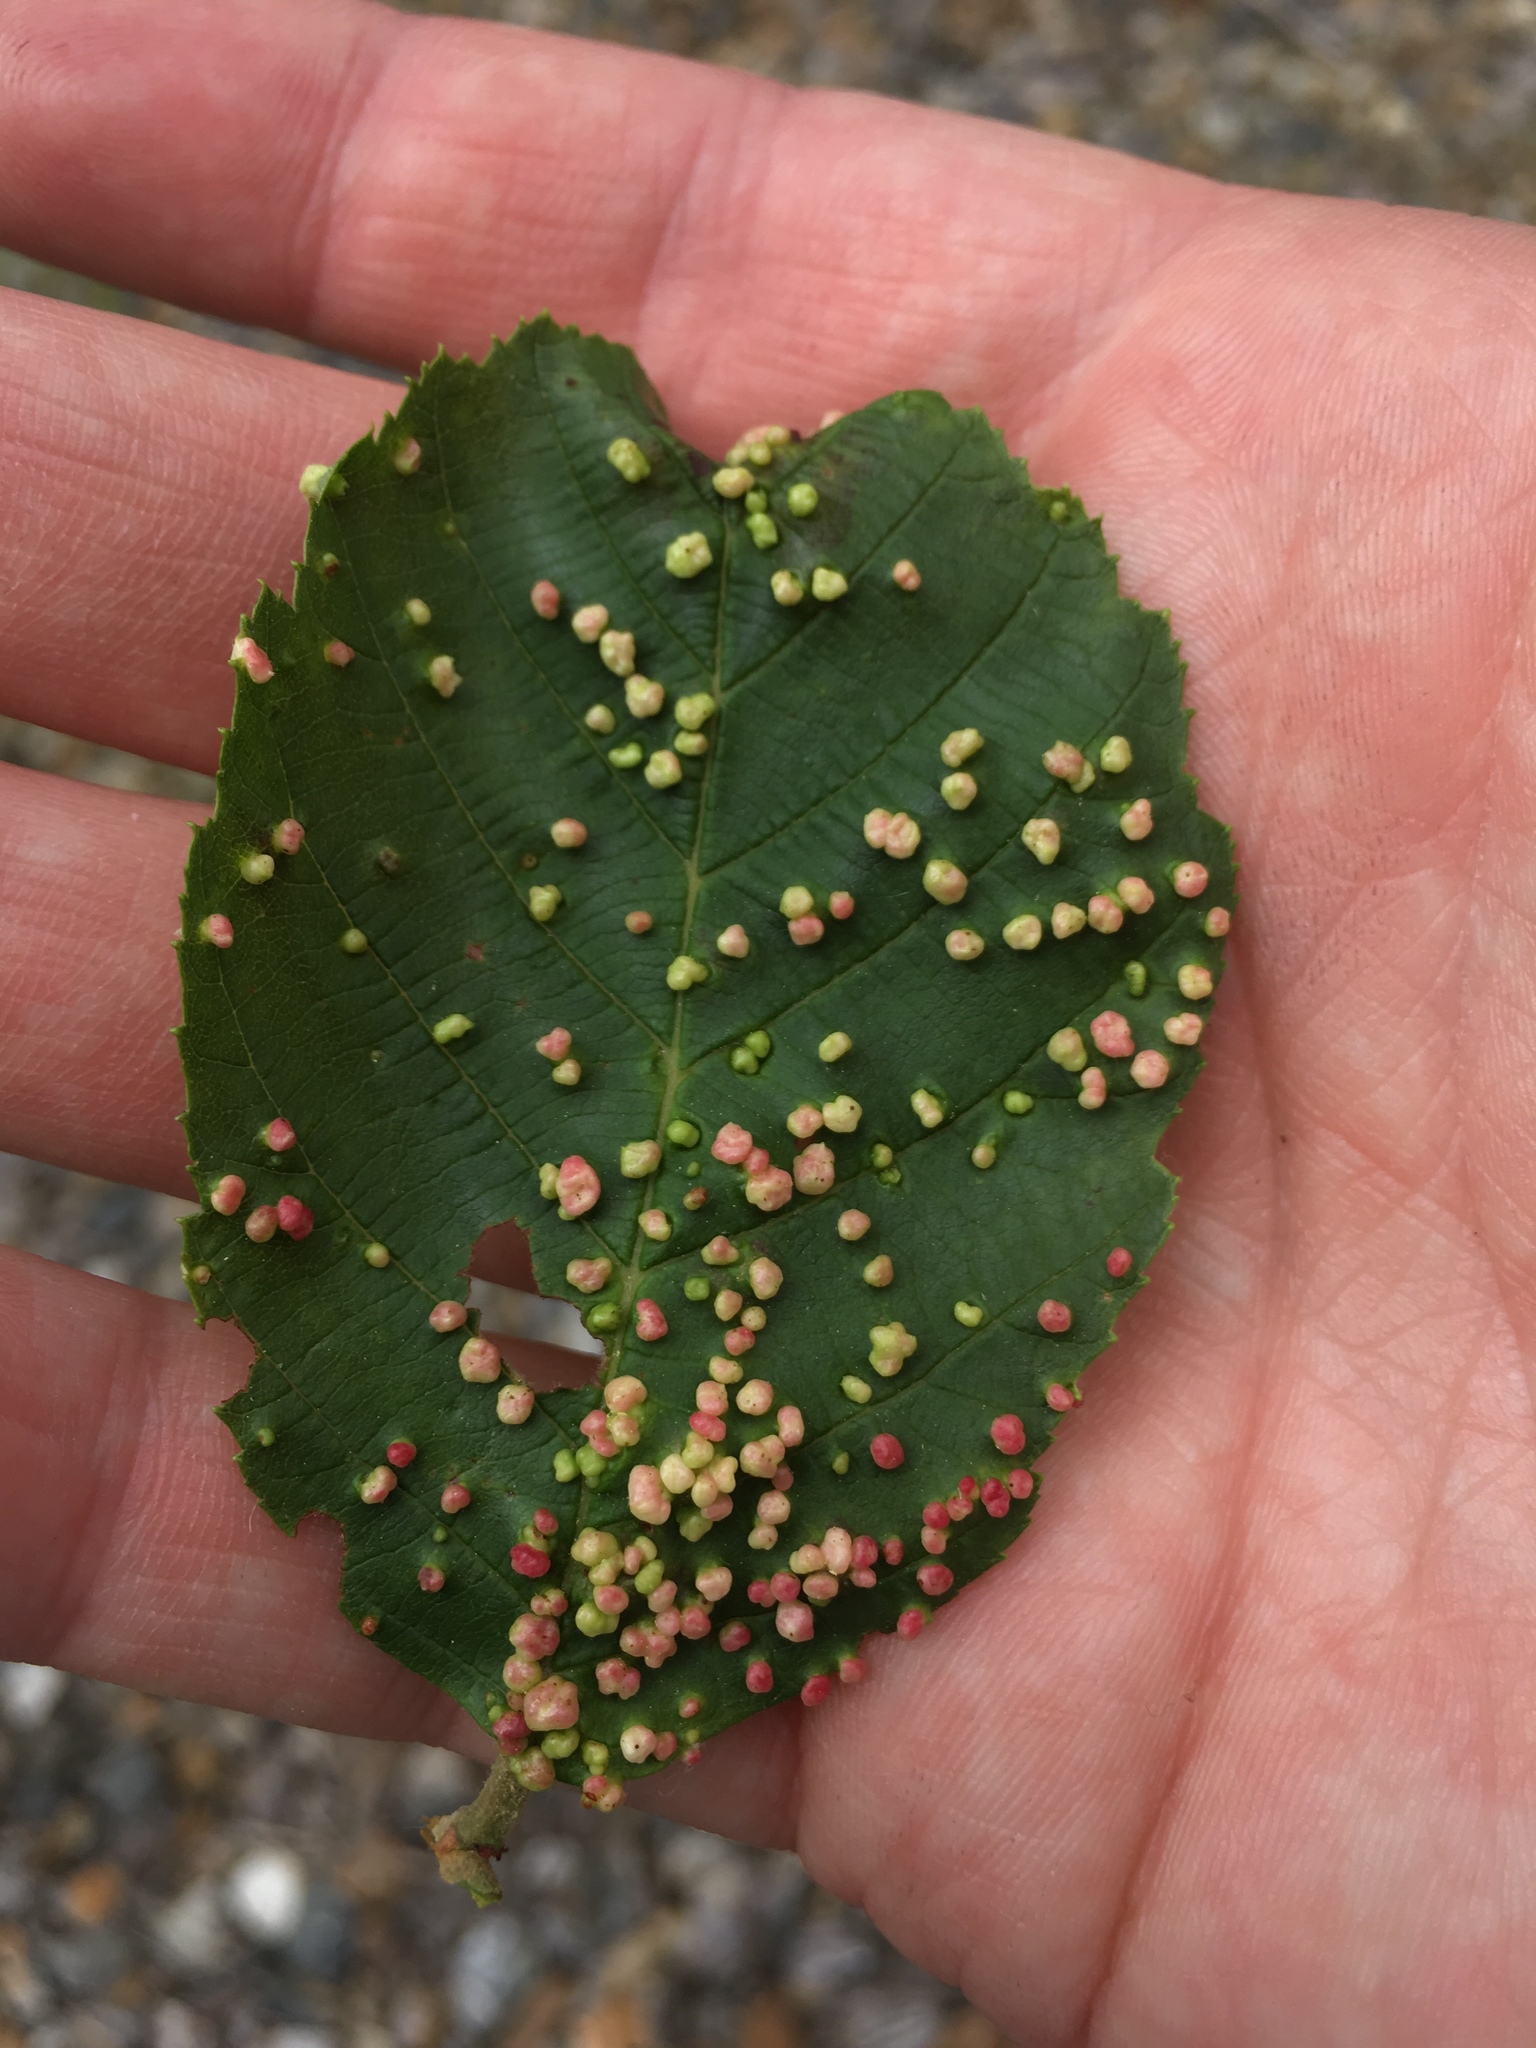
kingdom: Animalia
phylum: Arthropoda
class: Arachnida
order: Trombidiformes
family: Eriophyidae
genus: Eriophyes
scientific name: Eriophyes laevis
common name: Alder leaf gall mite
